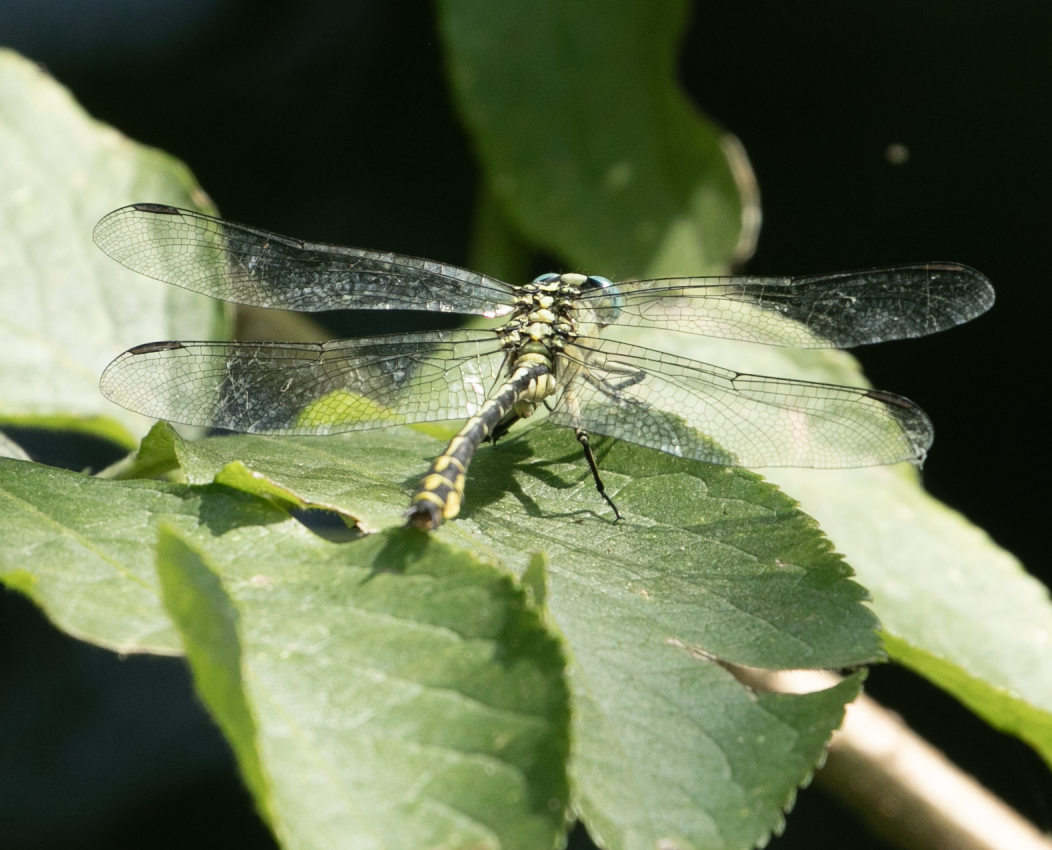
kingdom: Animalia
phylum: Arthropoda
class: Insecta
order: Odonata
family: Gomphidae
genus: Stylurus
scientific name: Stylurus flavipes
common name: River clubtail
